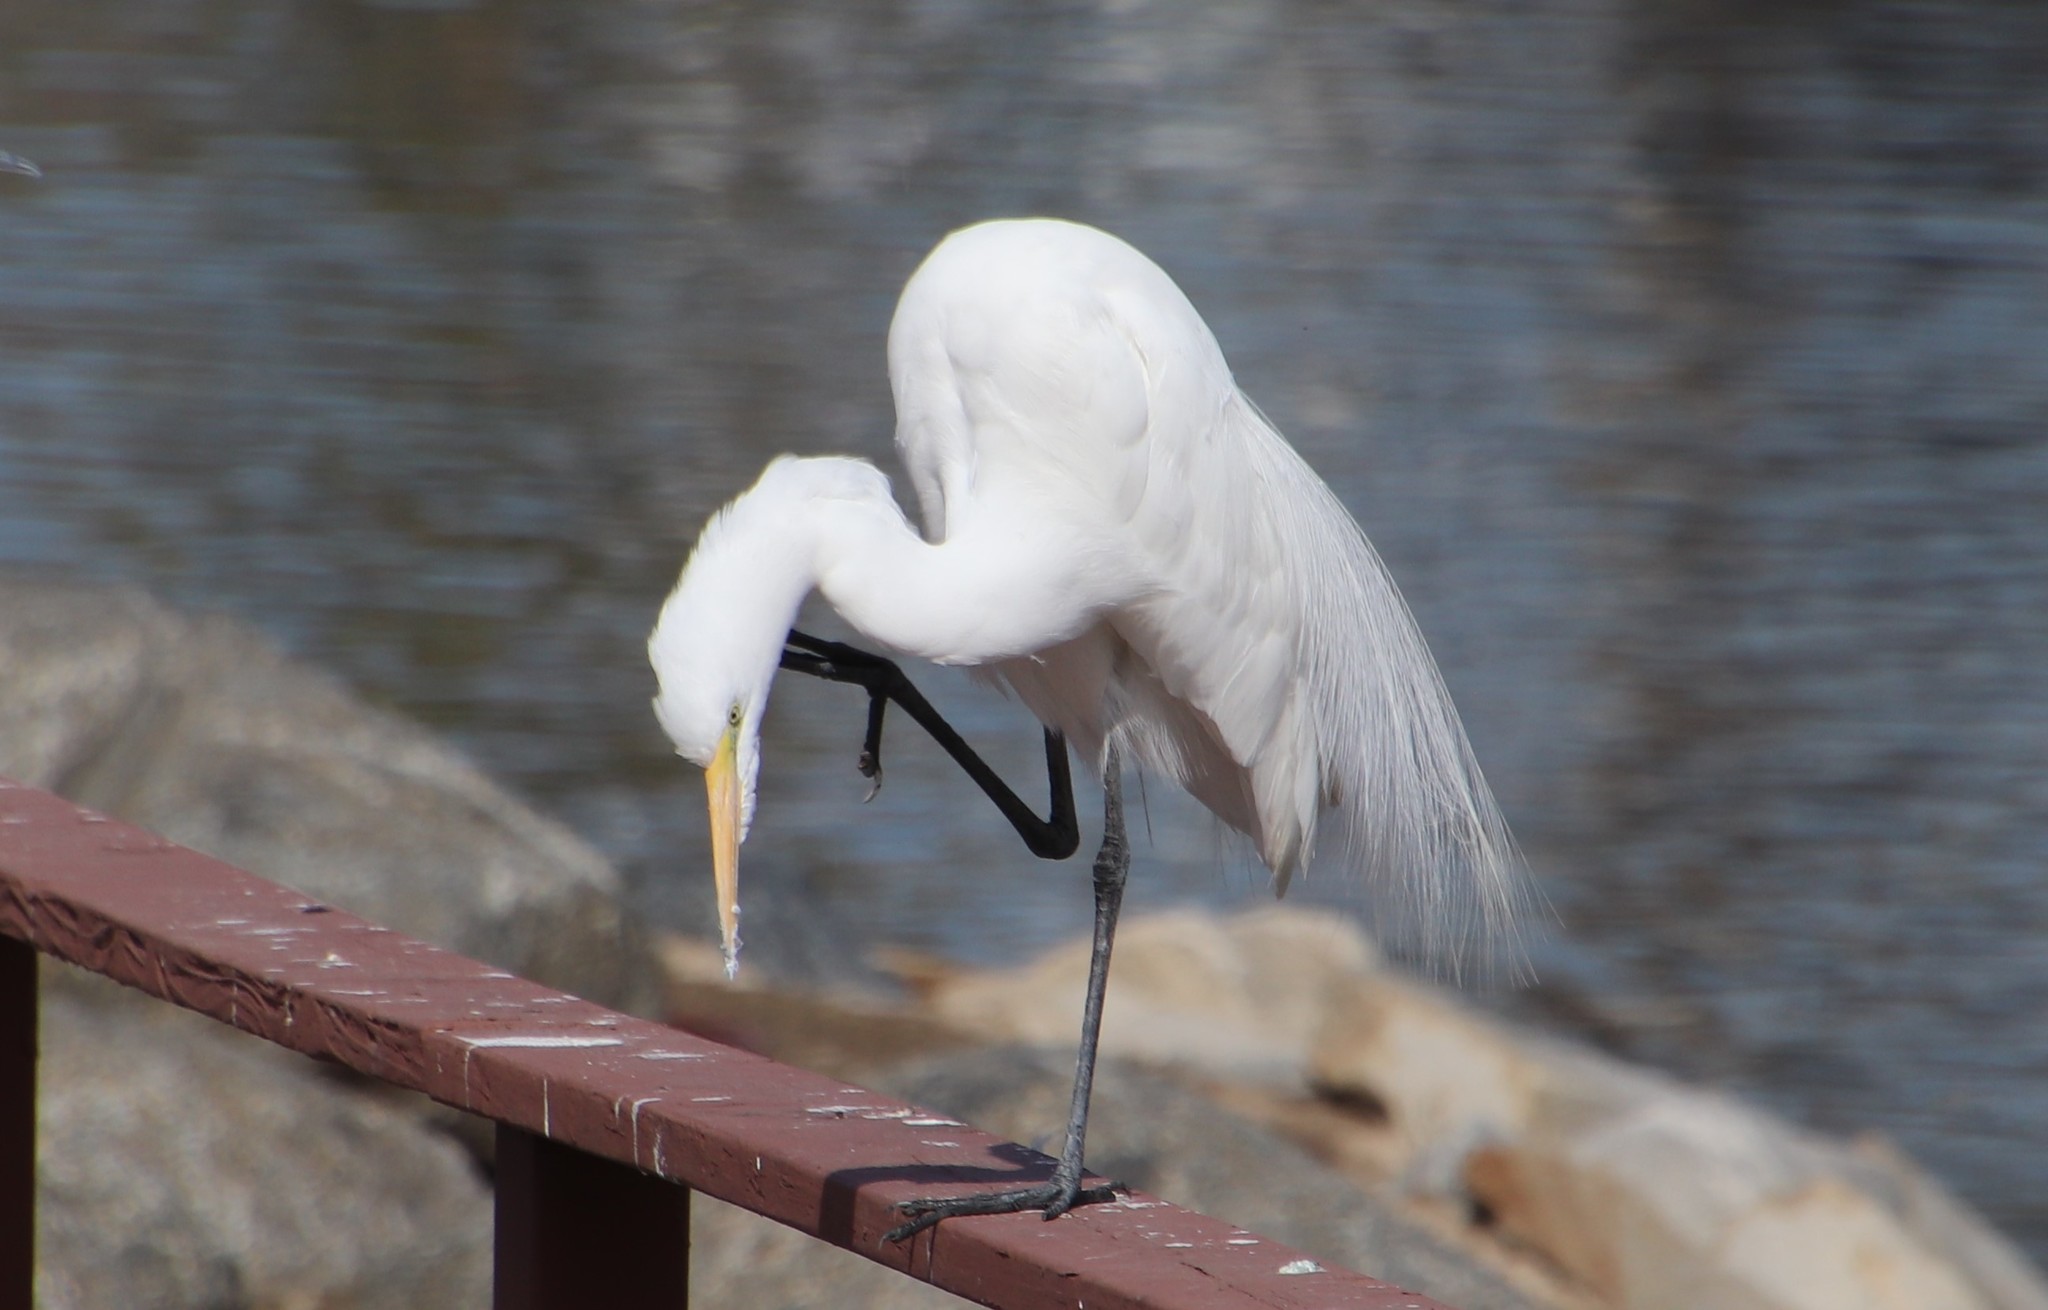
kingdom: Animalia
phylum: Chordata
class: Aves
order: Pelecaniformes
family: Ardeidae
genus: Ardea
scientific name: Ardea alba
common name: Great egret
